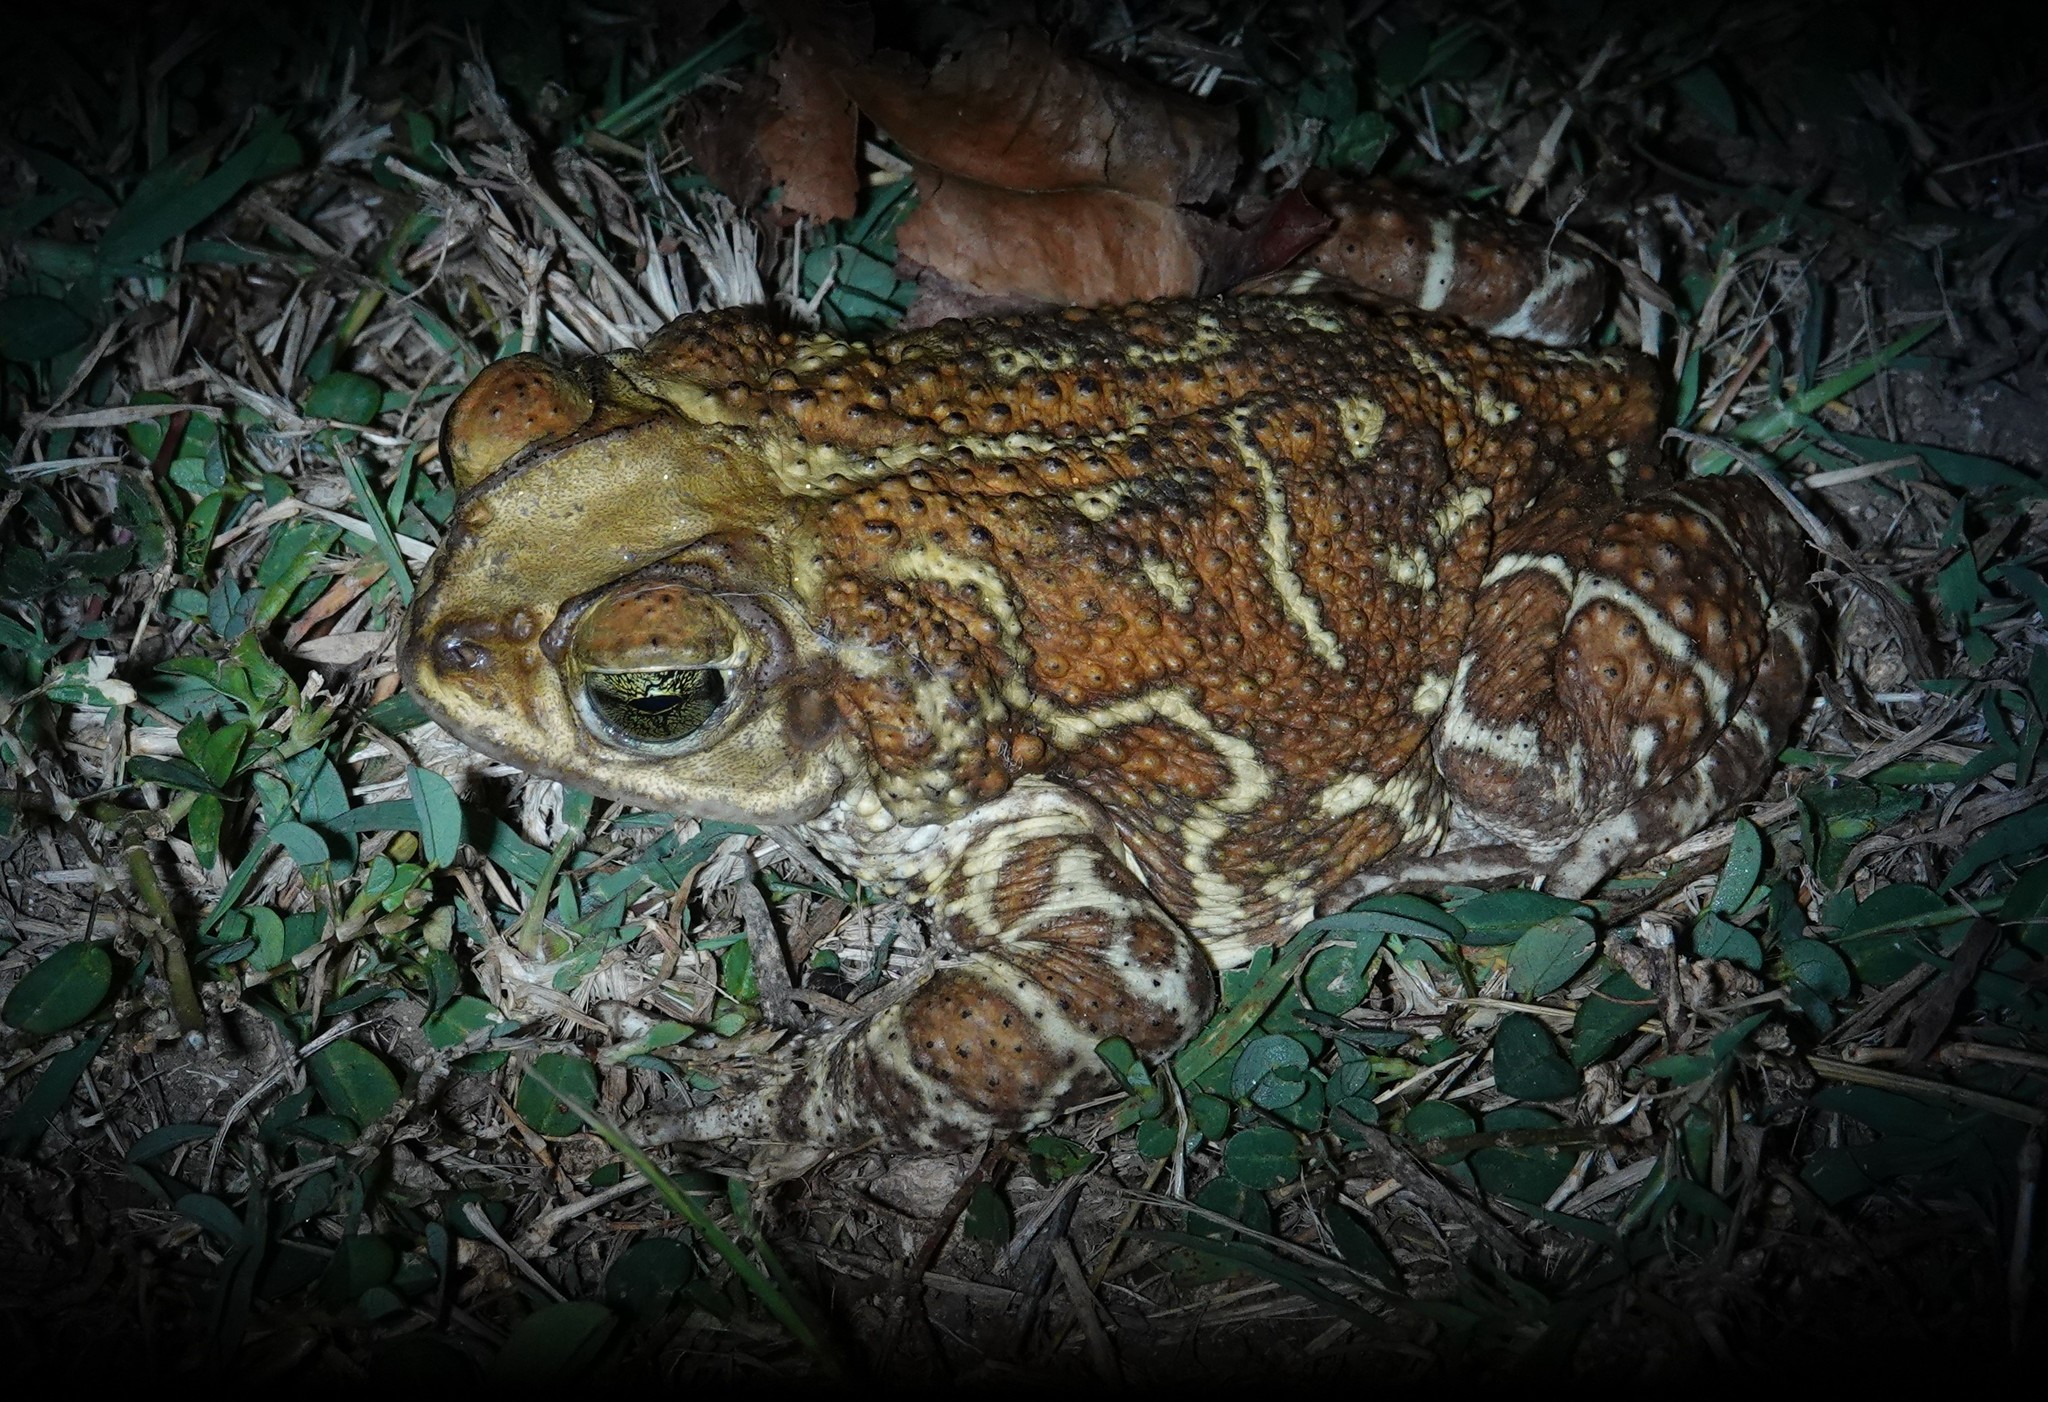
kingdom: Animalia
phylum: Chordata
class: Amphibia
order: Anura
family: Bufonidae
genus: Peltophryne
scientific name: Peltophryne peltocephala
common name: Eastern cuba giant toad
